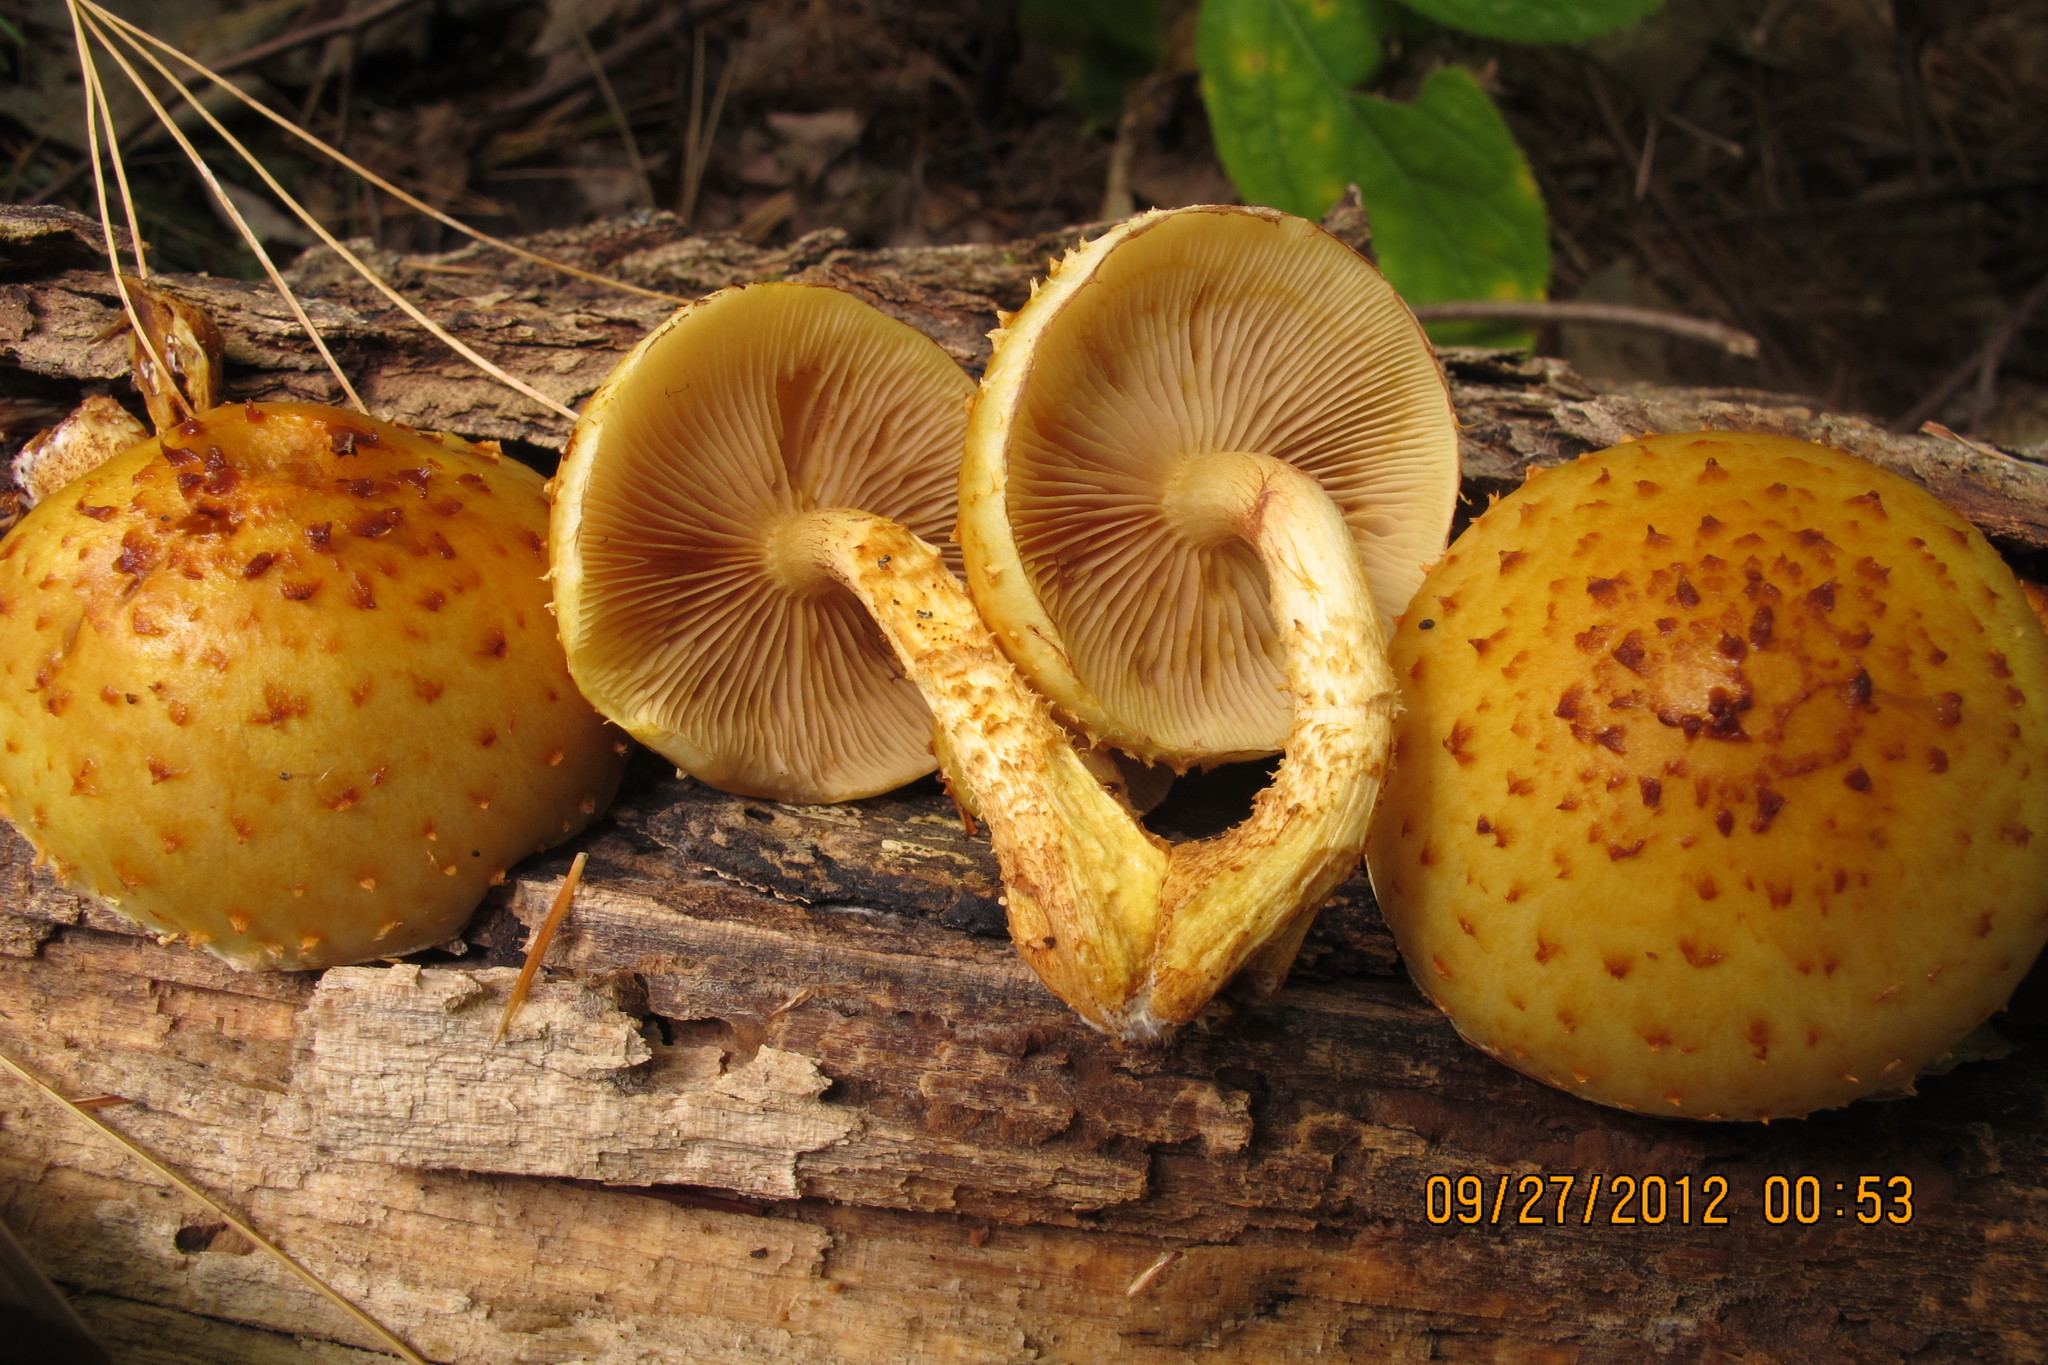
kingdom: Fungi
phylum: Basidiomycota
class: Agaricomycetes
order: Agaricales
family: Strophariaceae
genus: Pholiota
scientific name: Pholiota aurivella
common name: Golden scalycap
